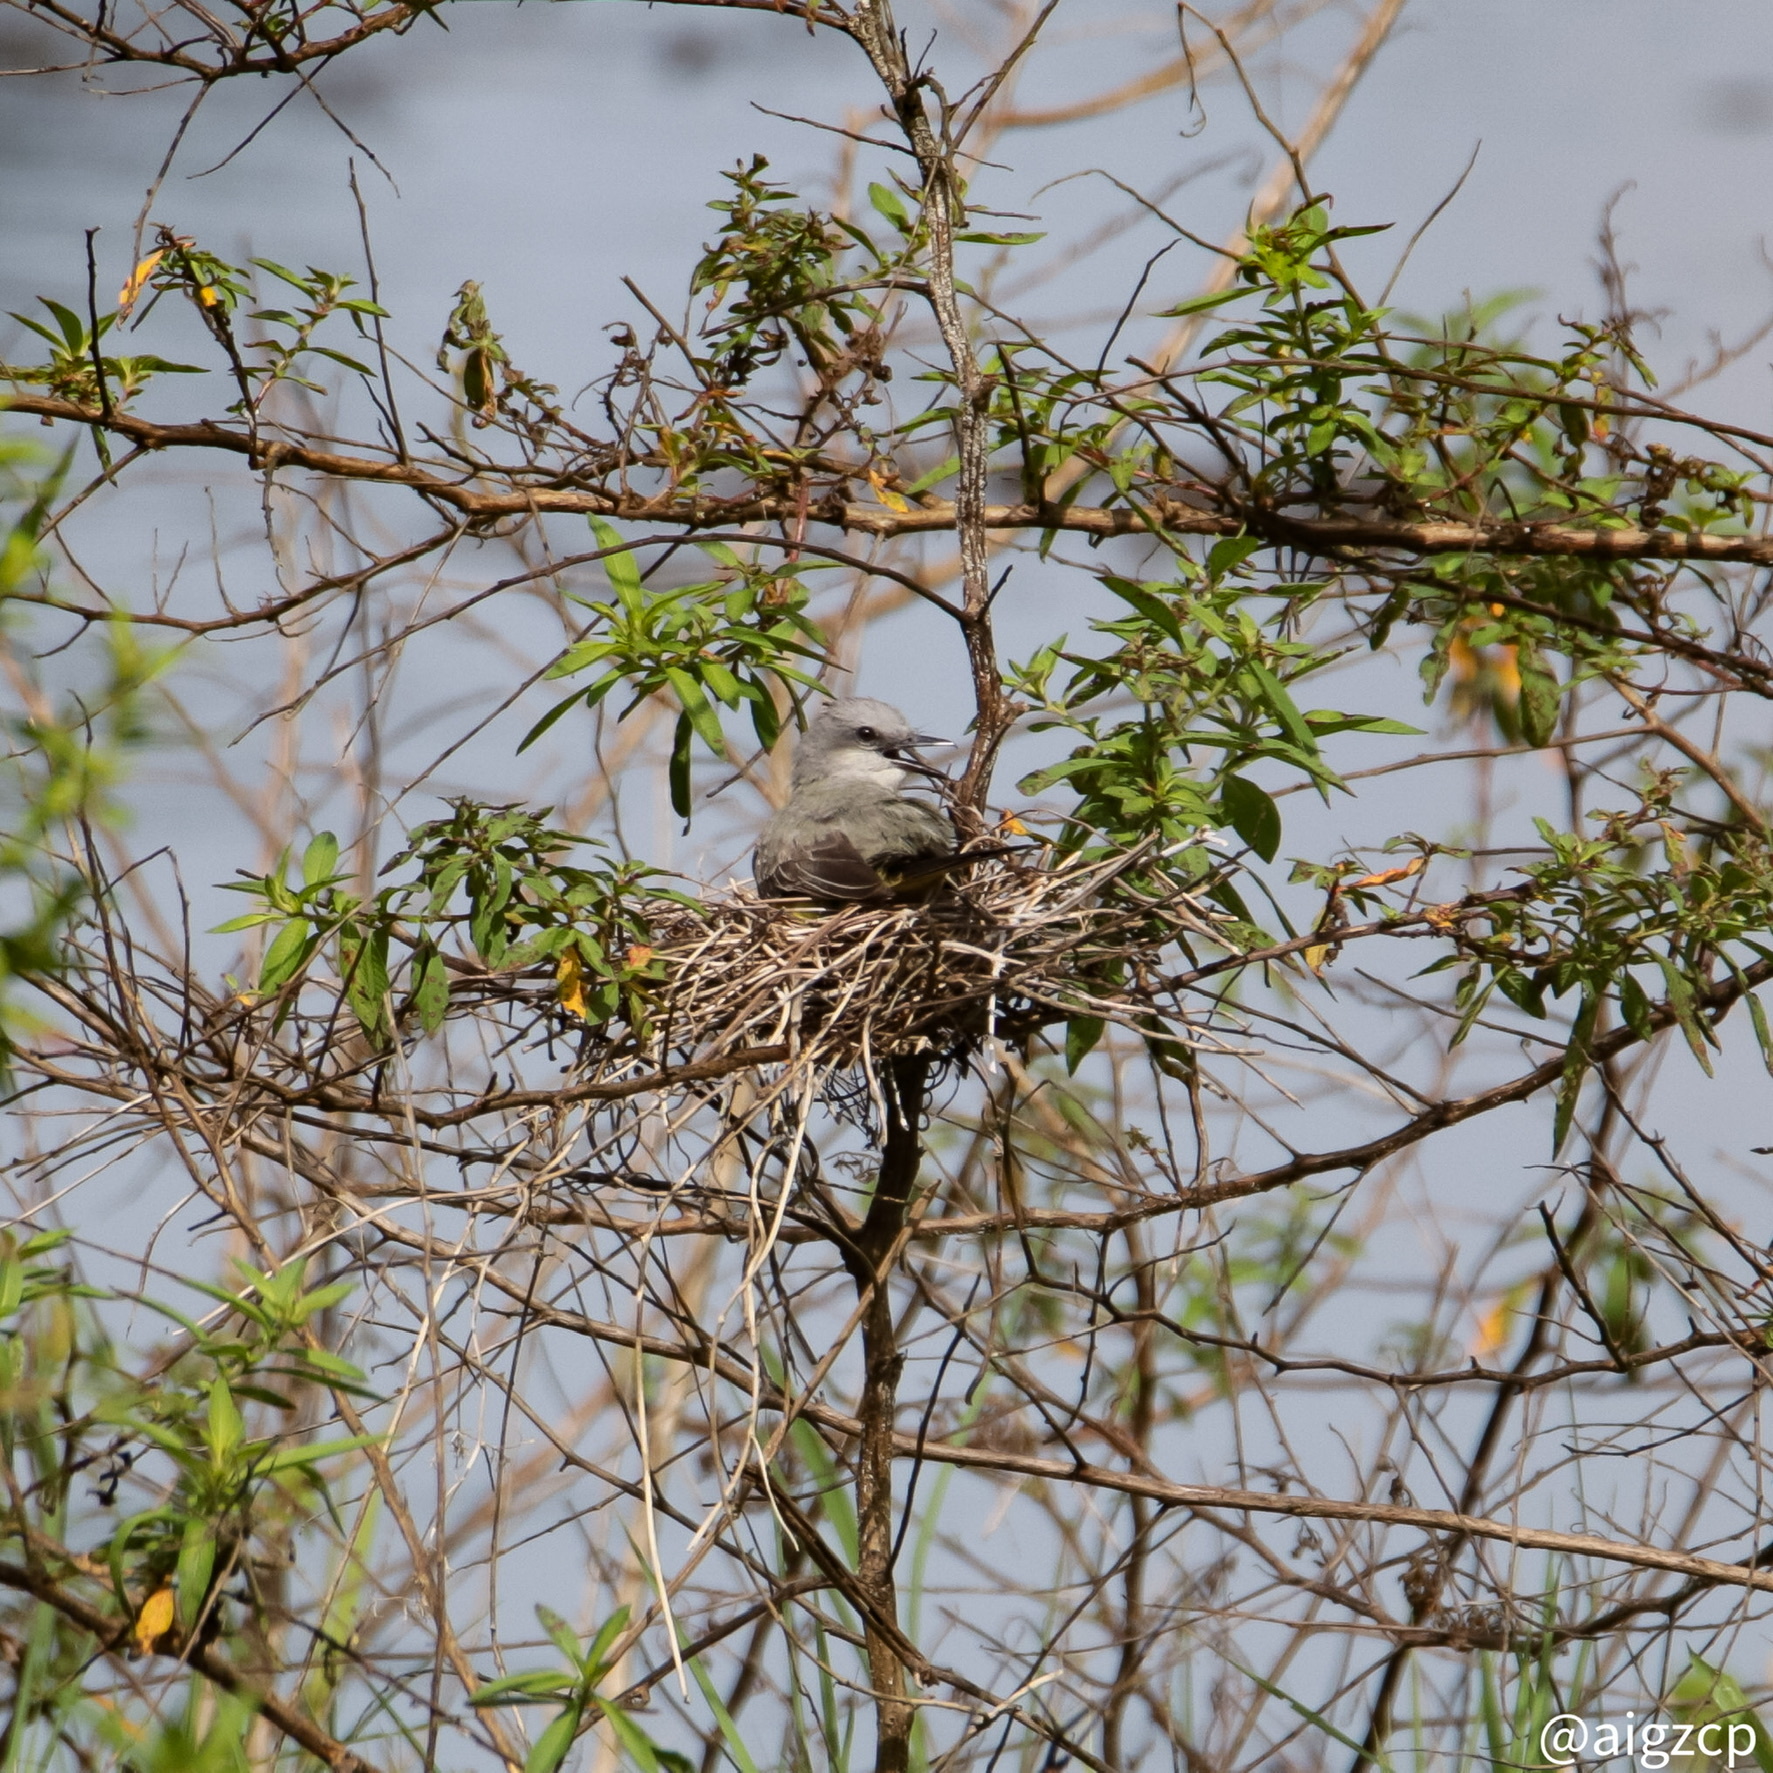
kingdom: Animalia
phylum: Chordata
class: Aves
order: Passeriformes
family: Tyrannidae
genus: Tyrannus
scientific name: Tyrannus melancholicus
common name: Tropical kingbird
